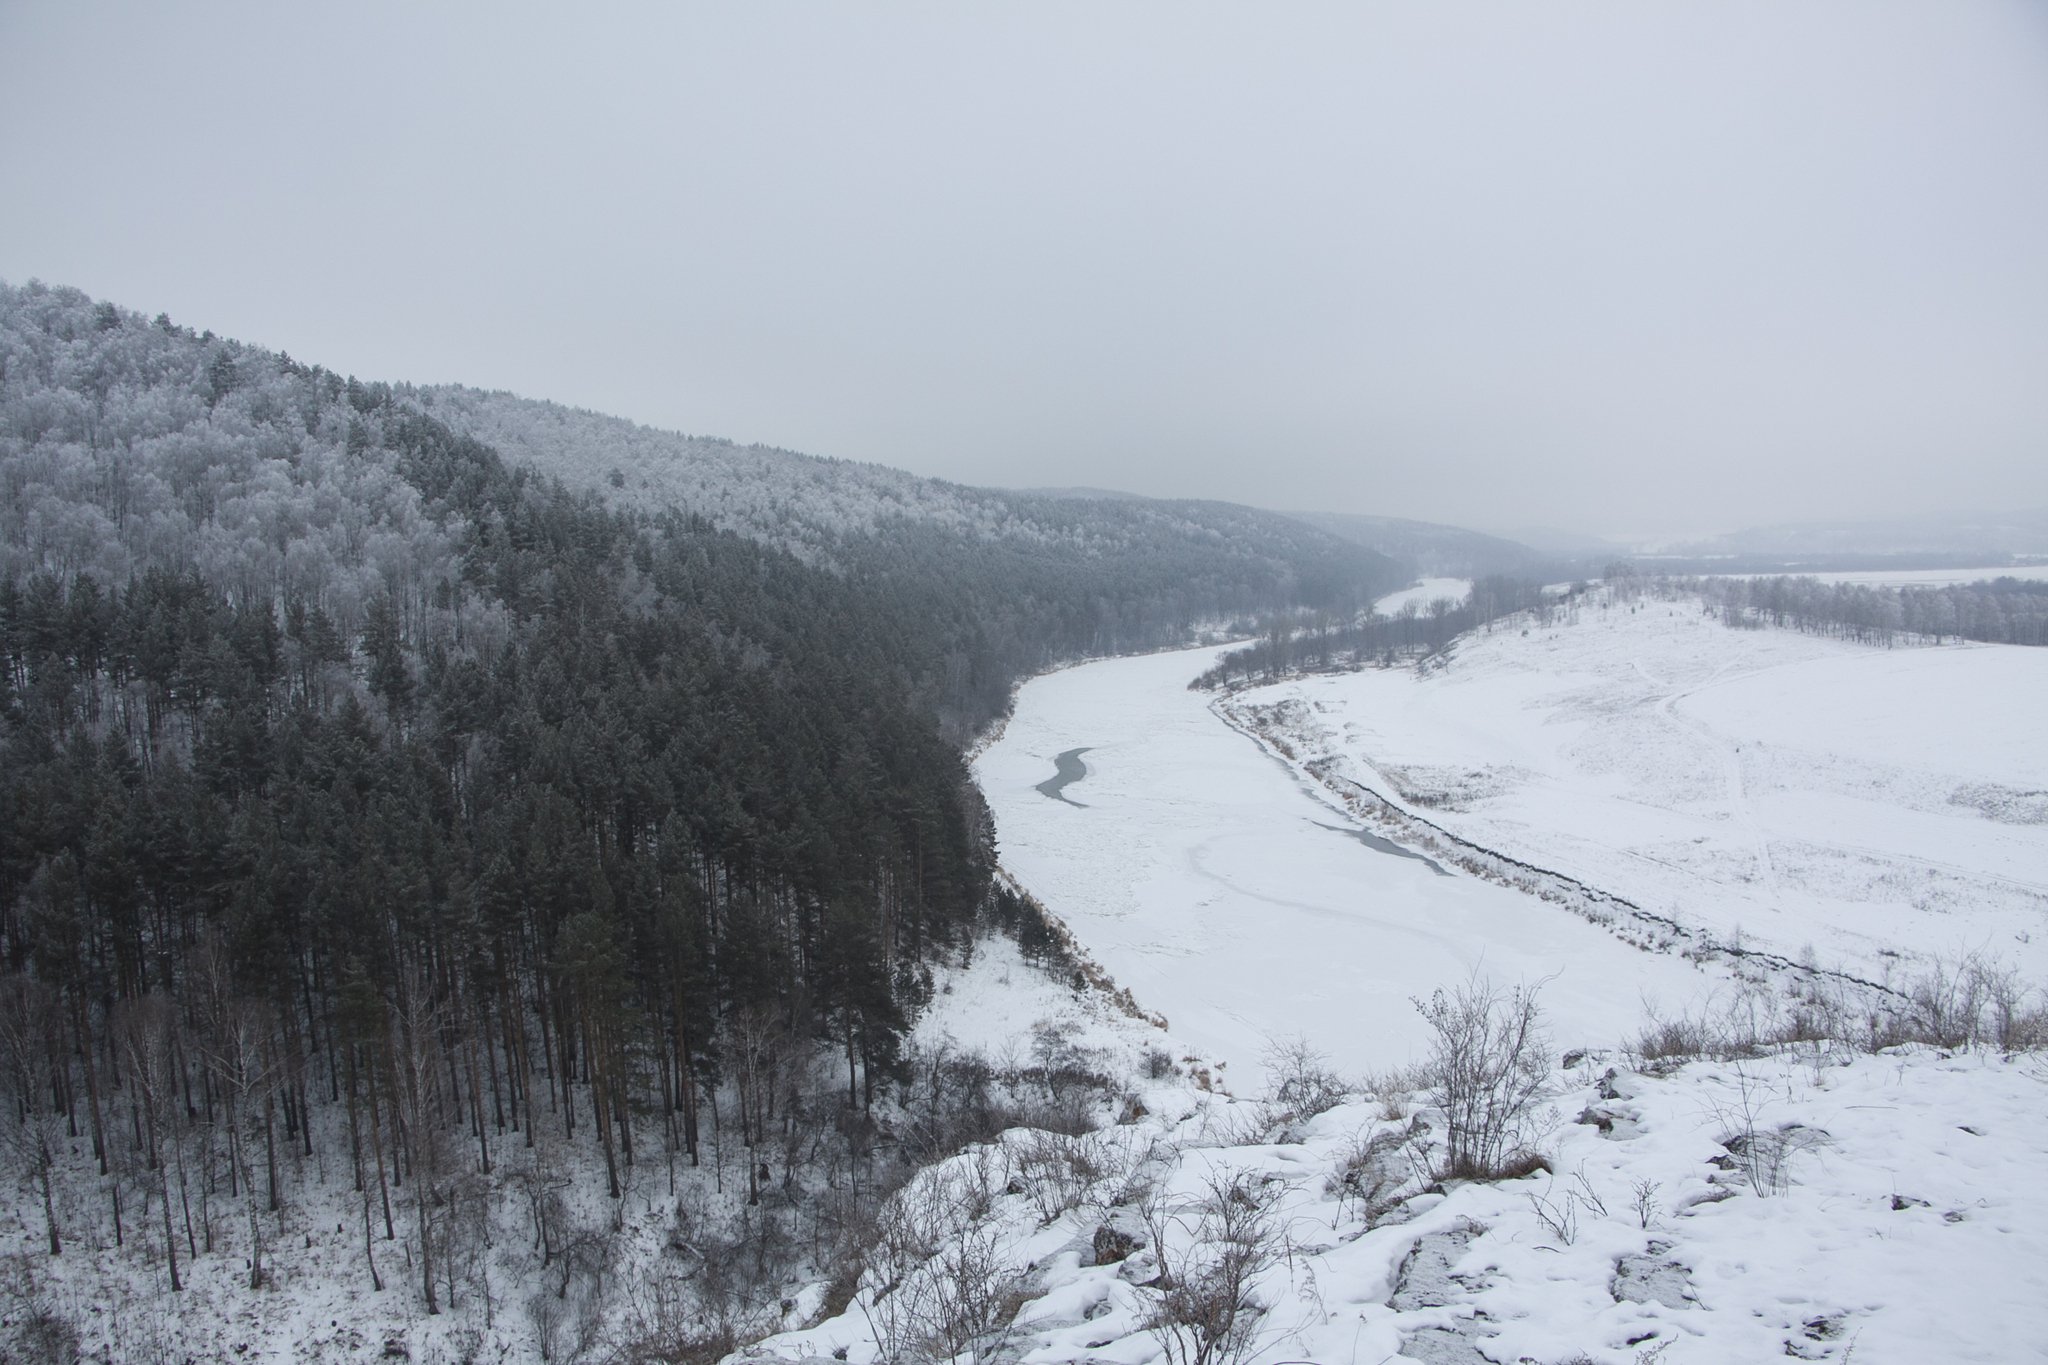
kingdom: Plantae
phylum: Tracheophyta
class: Pinopsida
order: Pinales
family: Pinaceae
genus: Pinus
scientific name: Pinus sylvestris
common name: Scots pine
